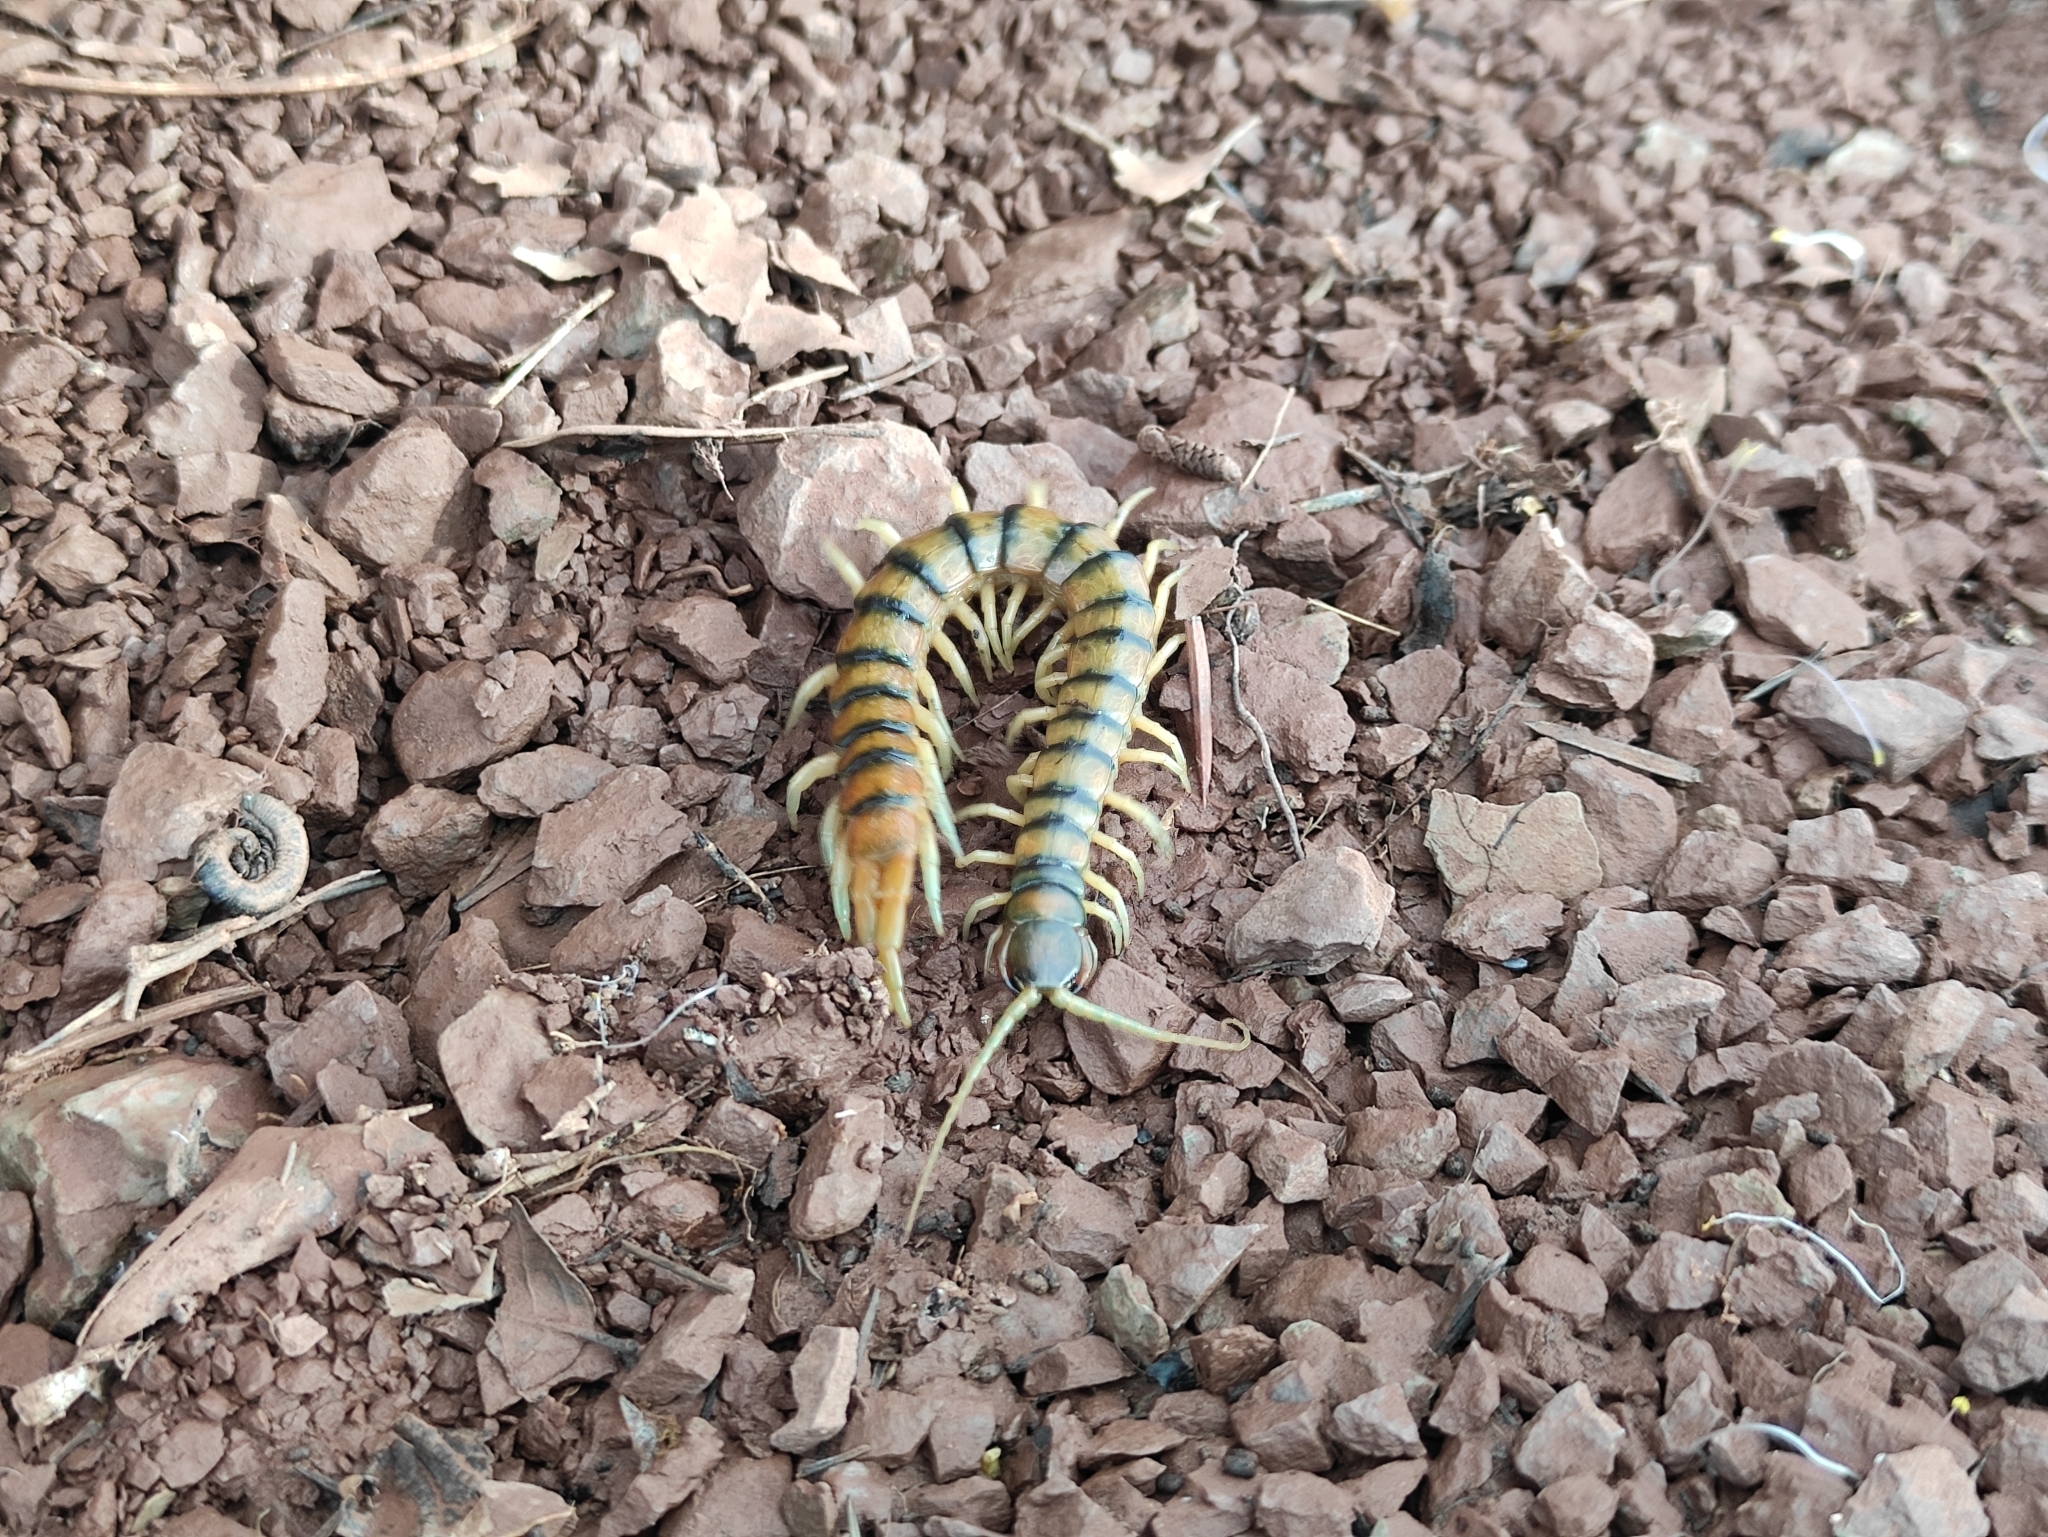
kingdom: Animalia
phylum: Arthropoda
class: Chilopoda
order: Scolopendromorpha
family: Scolopendridae
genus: Scolopendra
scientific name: Scolopendra cingulata
